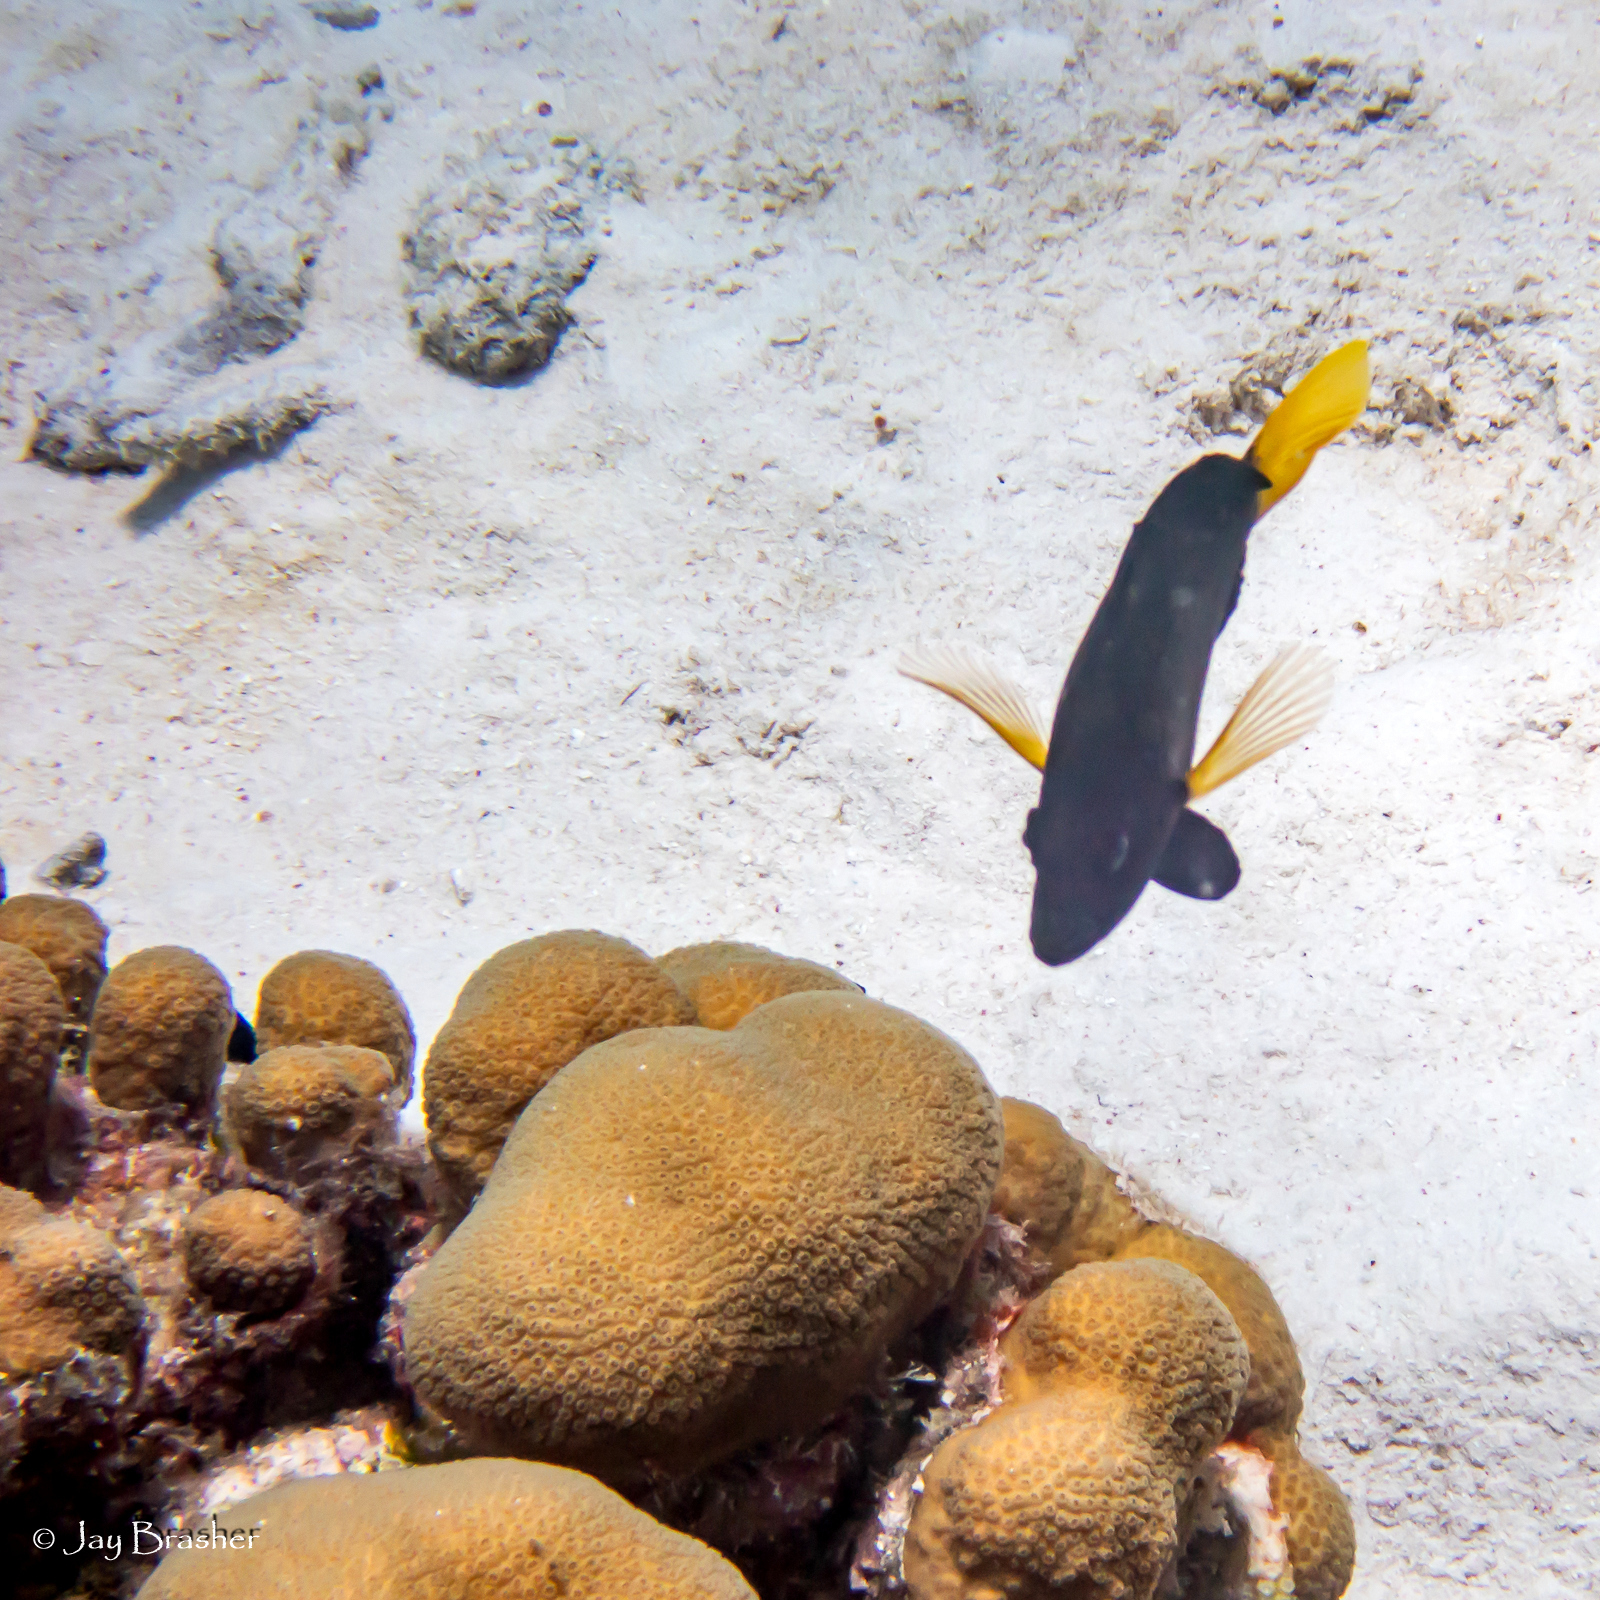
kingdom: Animalia
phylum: Chordata
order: Perciformes
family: Serranidae
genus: Hypoplectrus
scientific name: Hypoplectrus chlorurus
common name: Yellowtail hamlet
